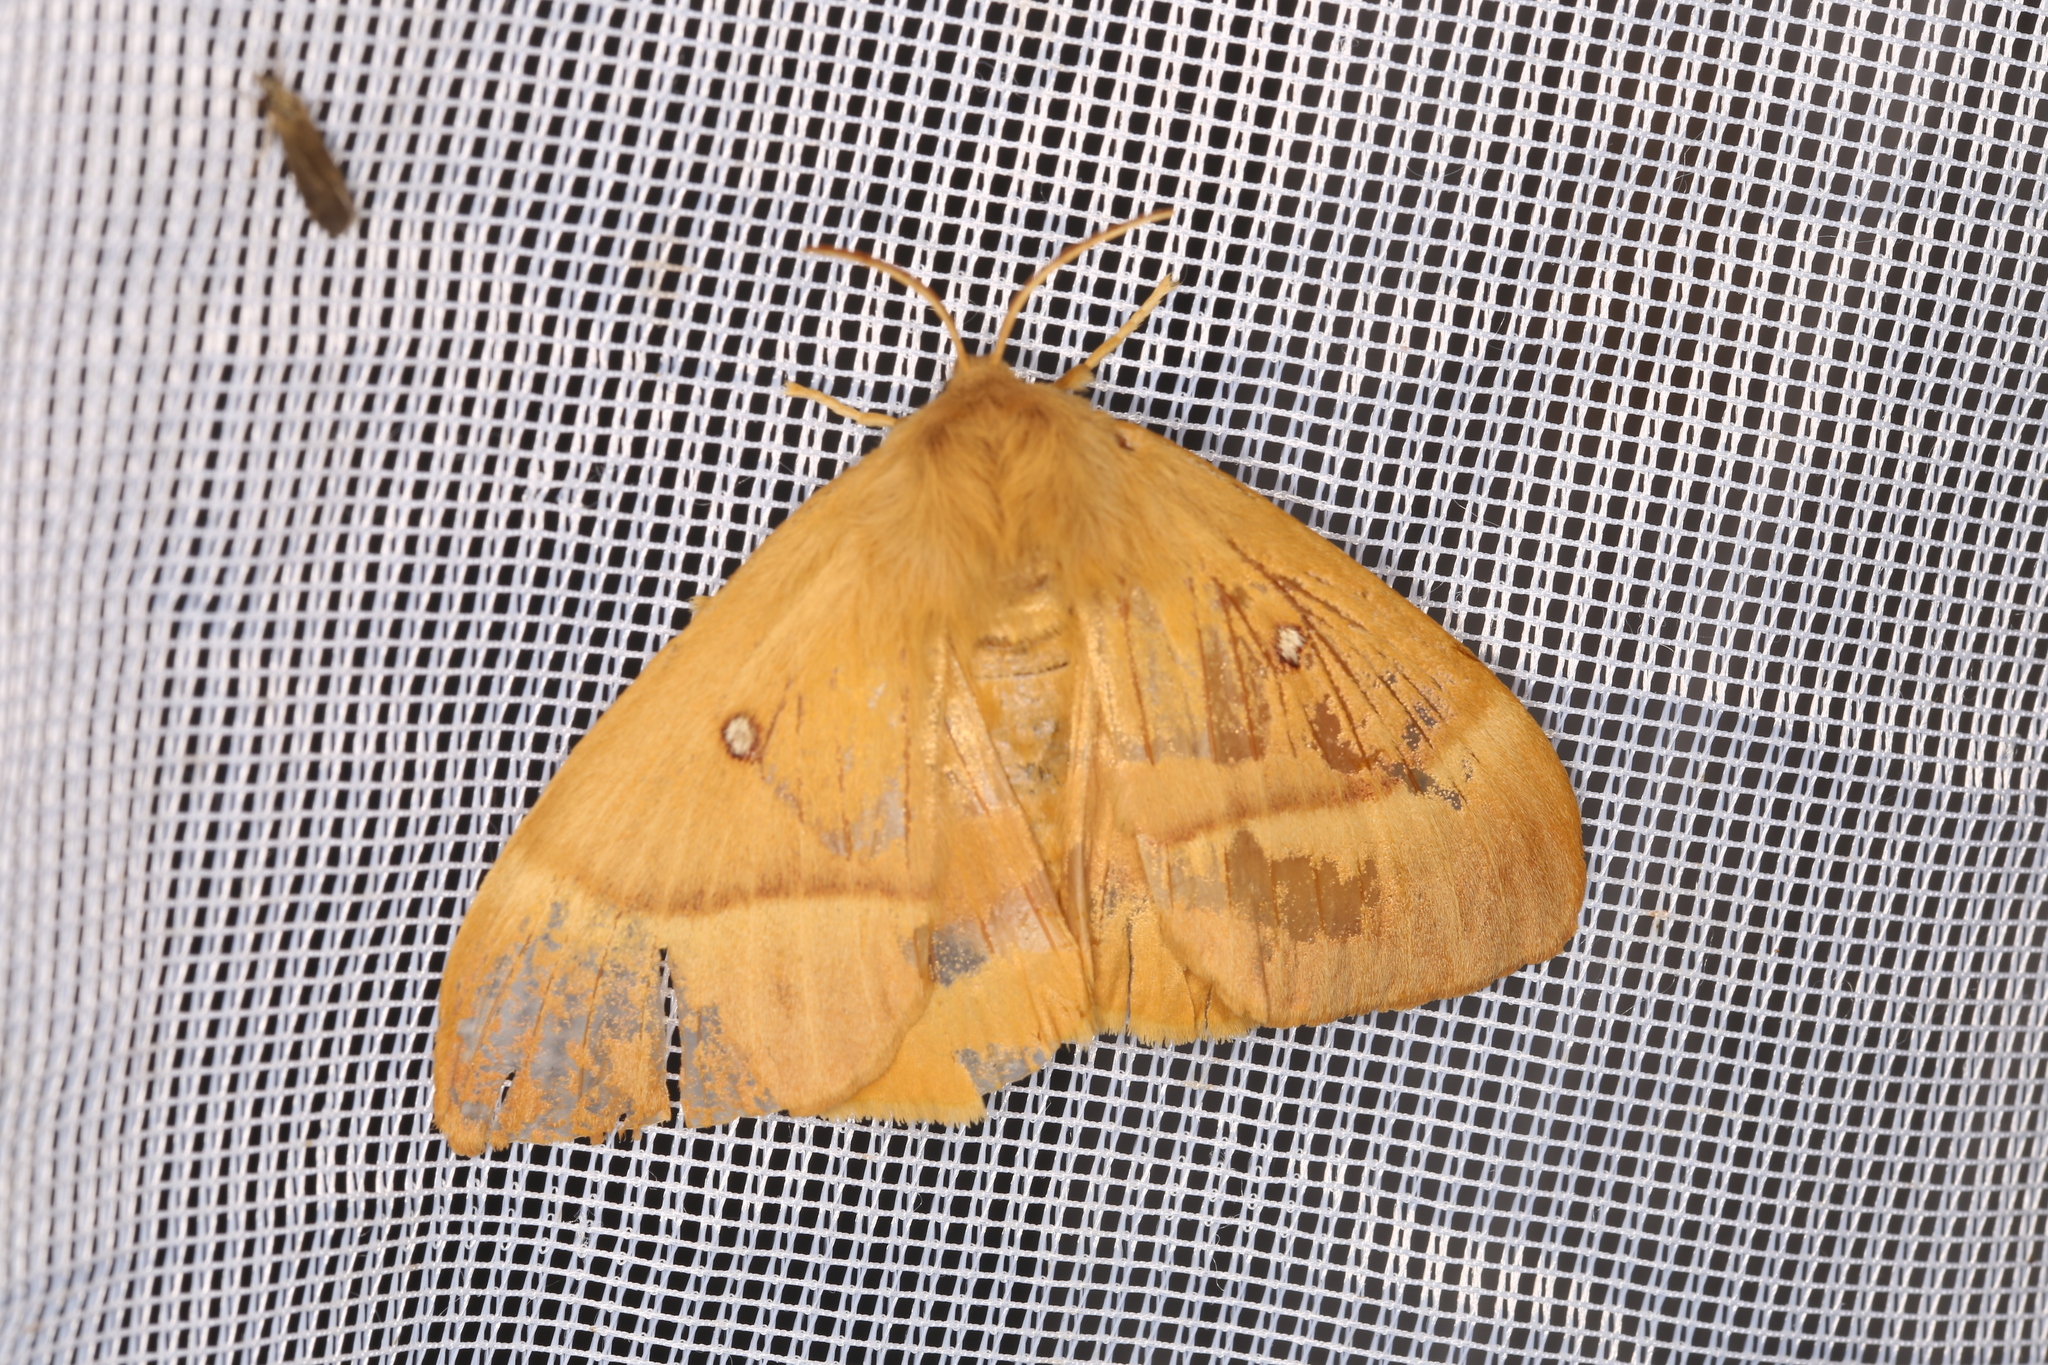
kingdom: Animalia
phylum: Arthropoda
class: Insecta
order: Lepidoptera
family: Lasiocampidae
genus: Lasiocampa
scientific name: Lasiocampa quercus
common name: Oak eggar
